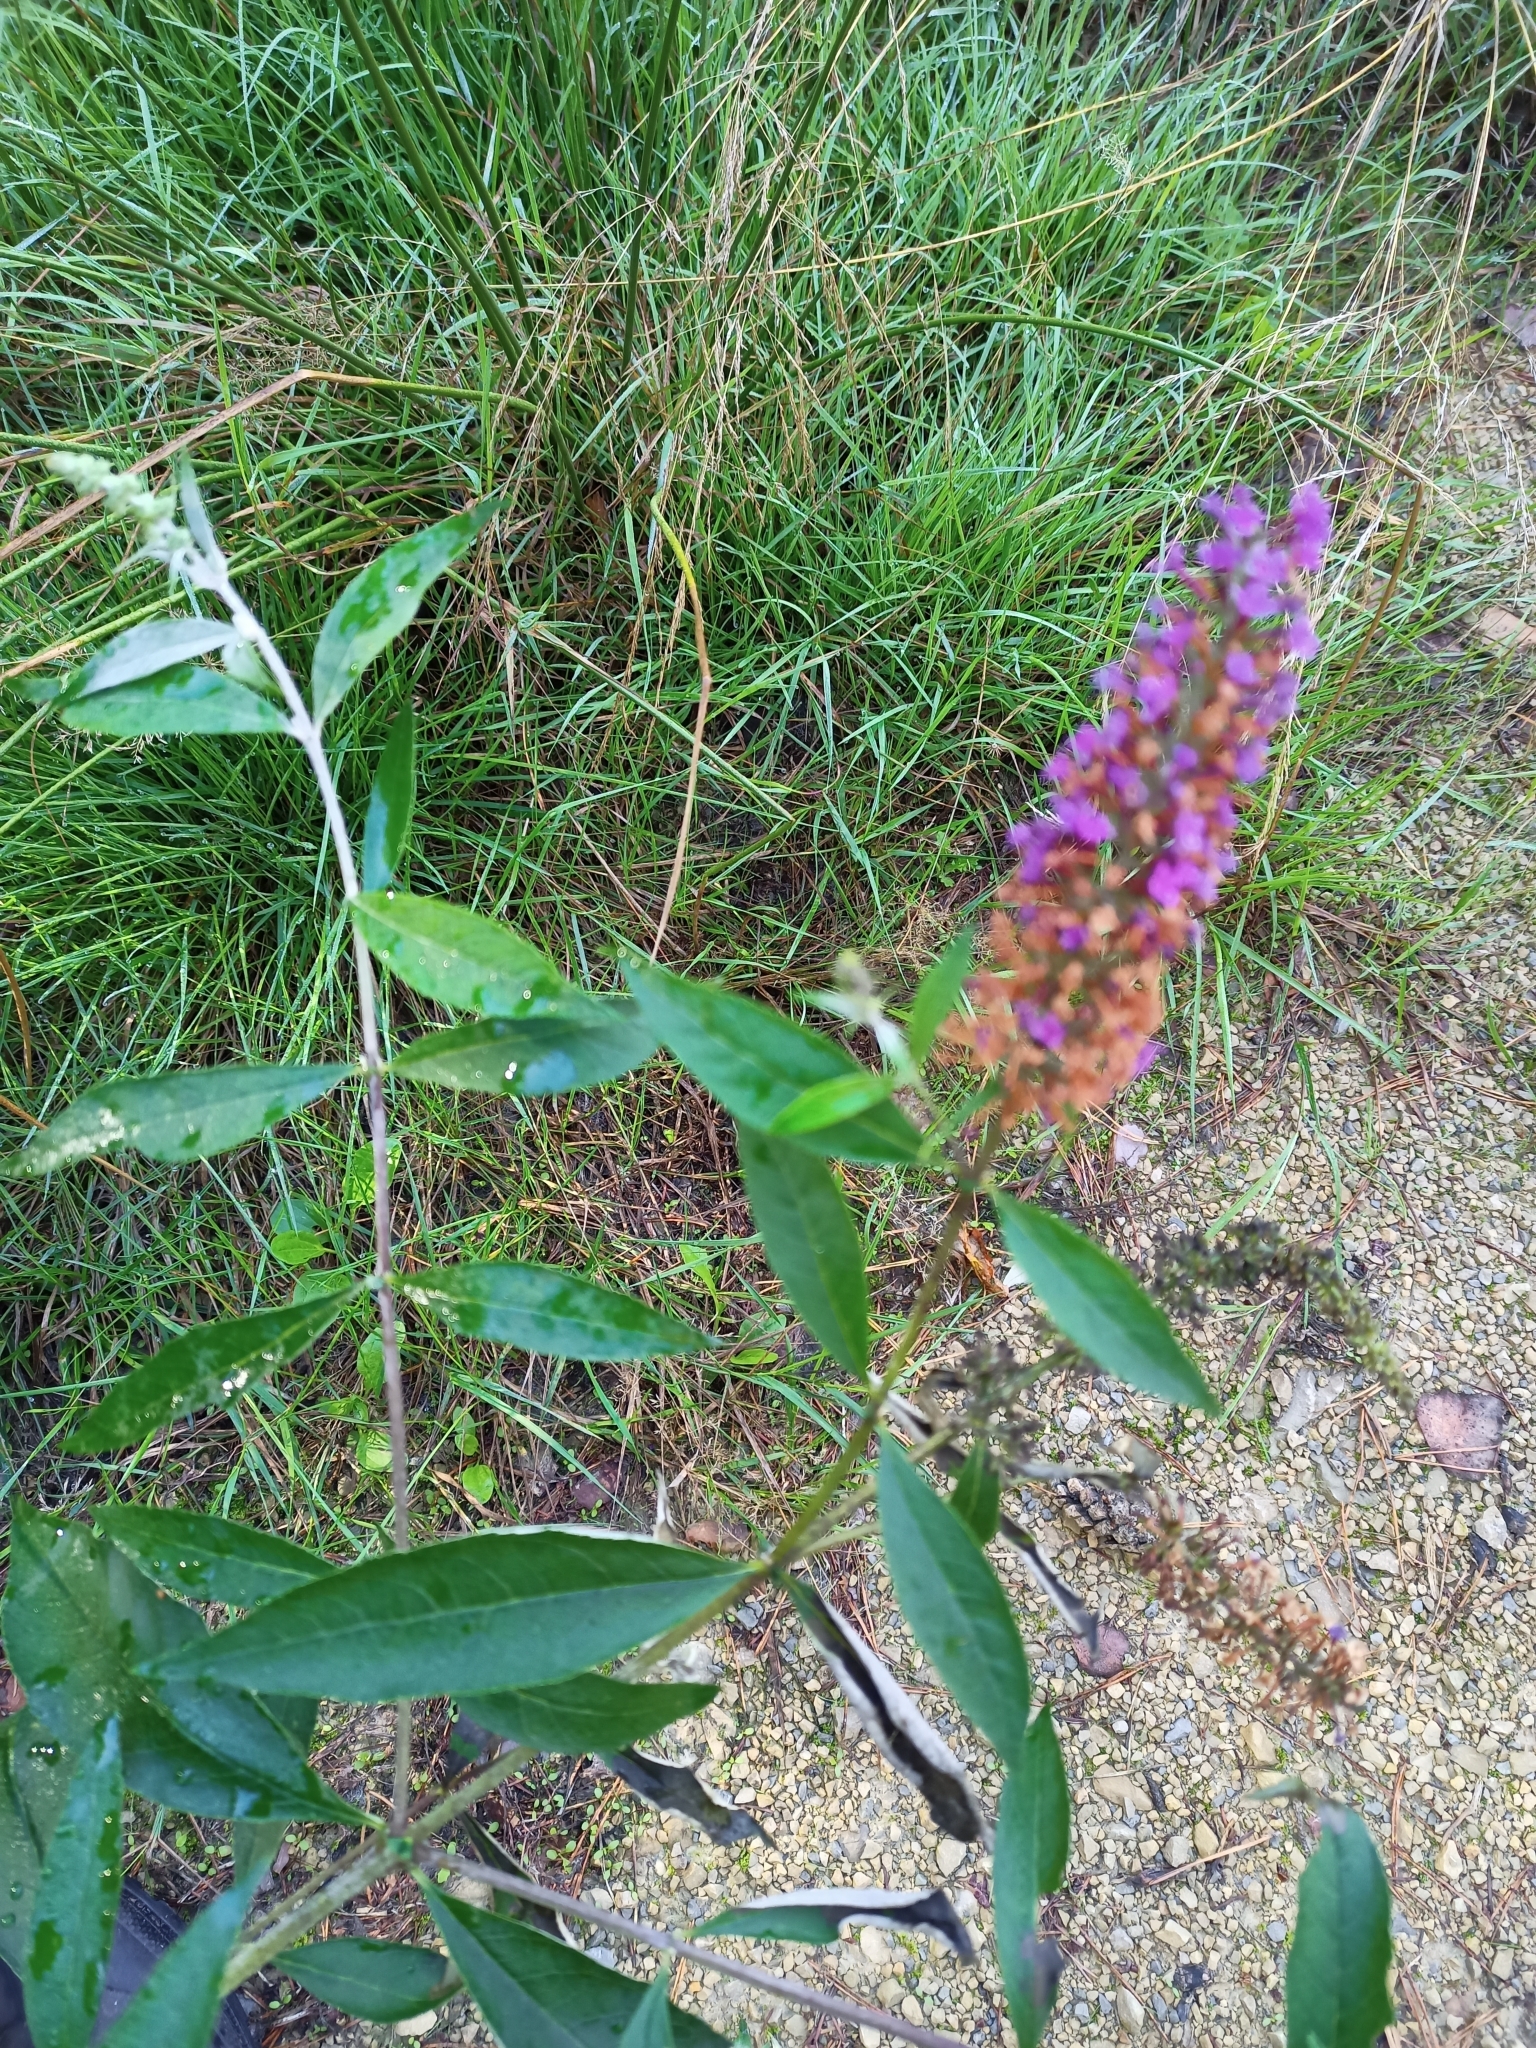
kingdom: Plantae
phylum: Tracheophyta
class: Magnoliopsida
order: Lamiales
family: Scrophulariaceae
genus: Buddleja
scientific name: Buddleja davidii
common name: Butterfly-bush
